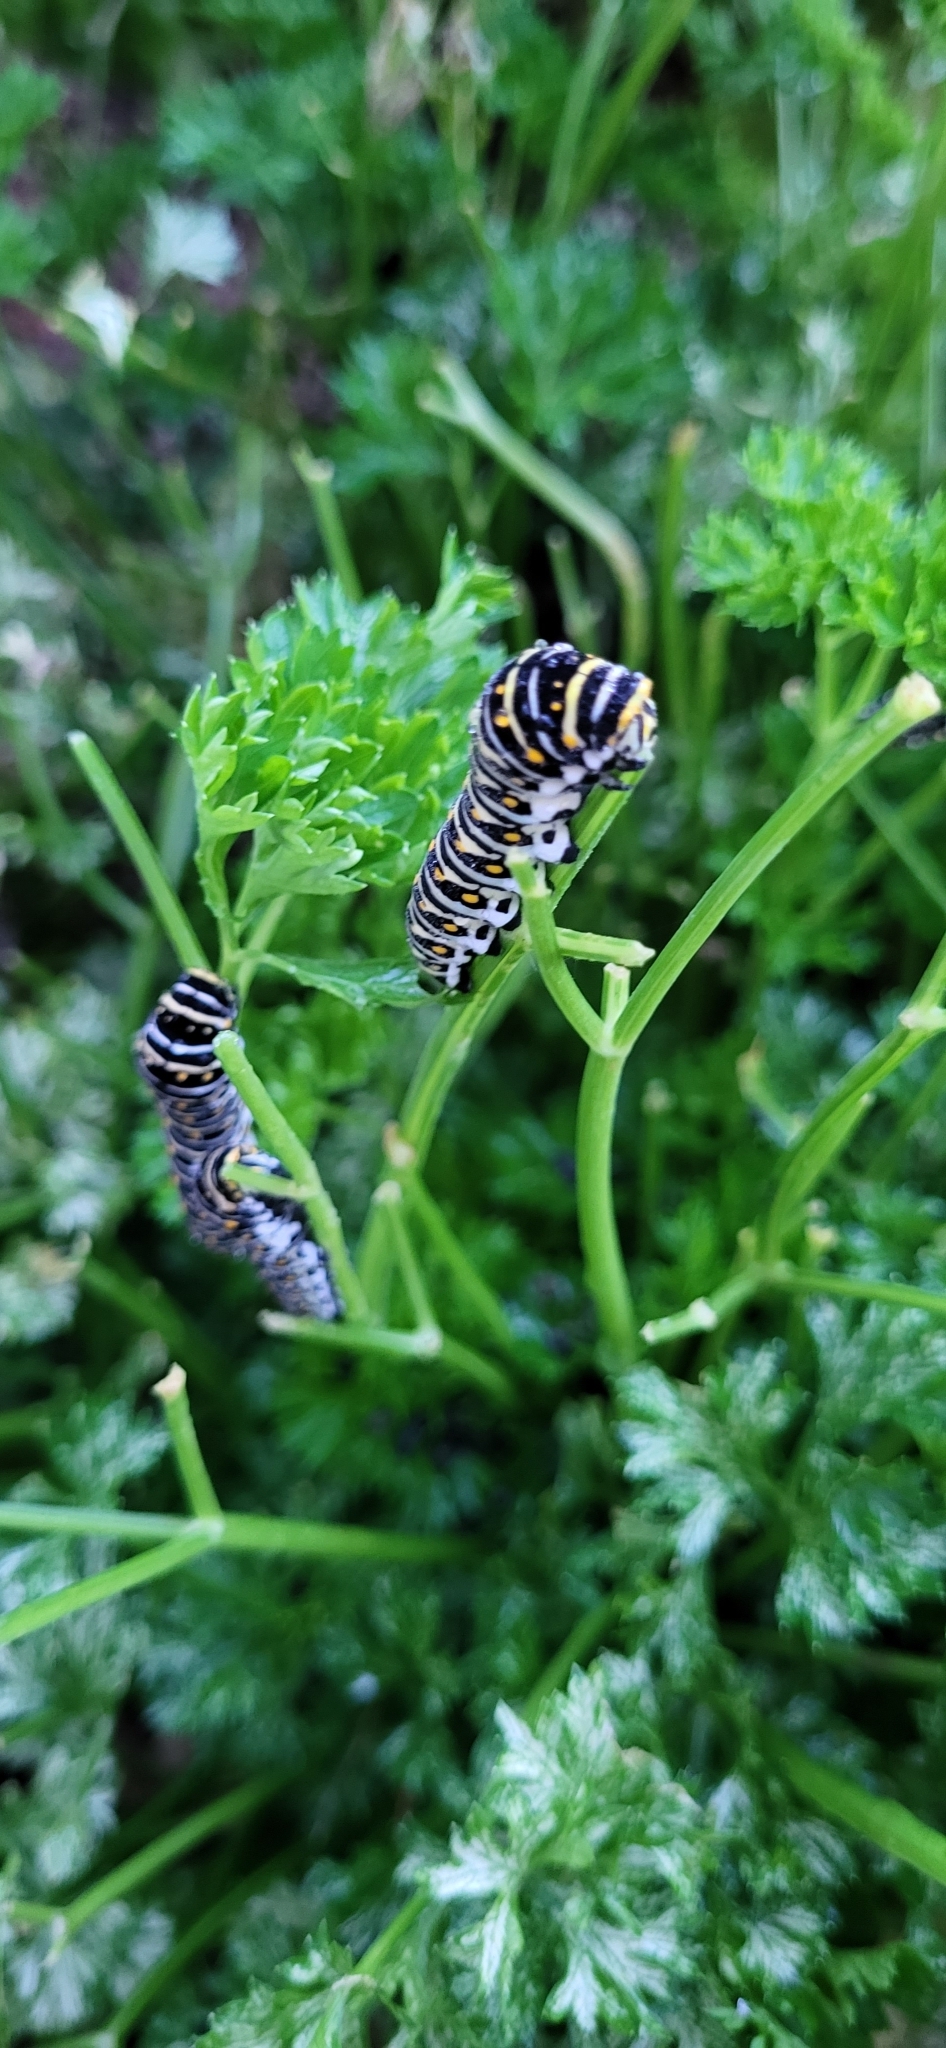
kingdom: Animalia
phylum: Arthropoda
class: Insecta
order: Lepidoptera
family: Papilionidae
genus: Papilio
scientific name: Papilio polyxenes
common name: Black swallowtail
